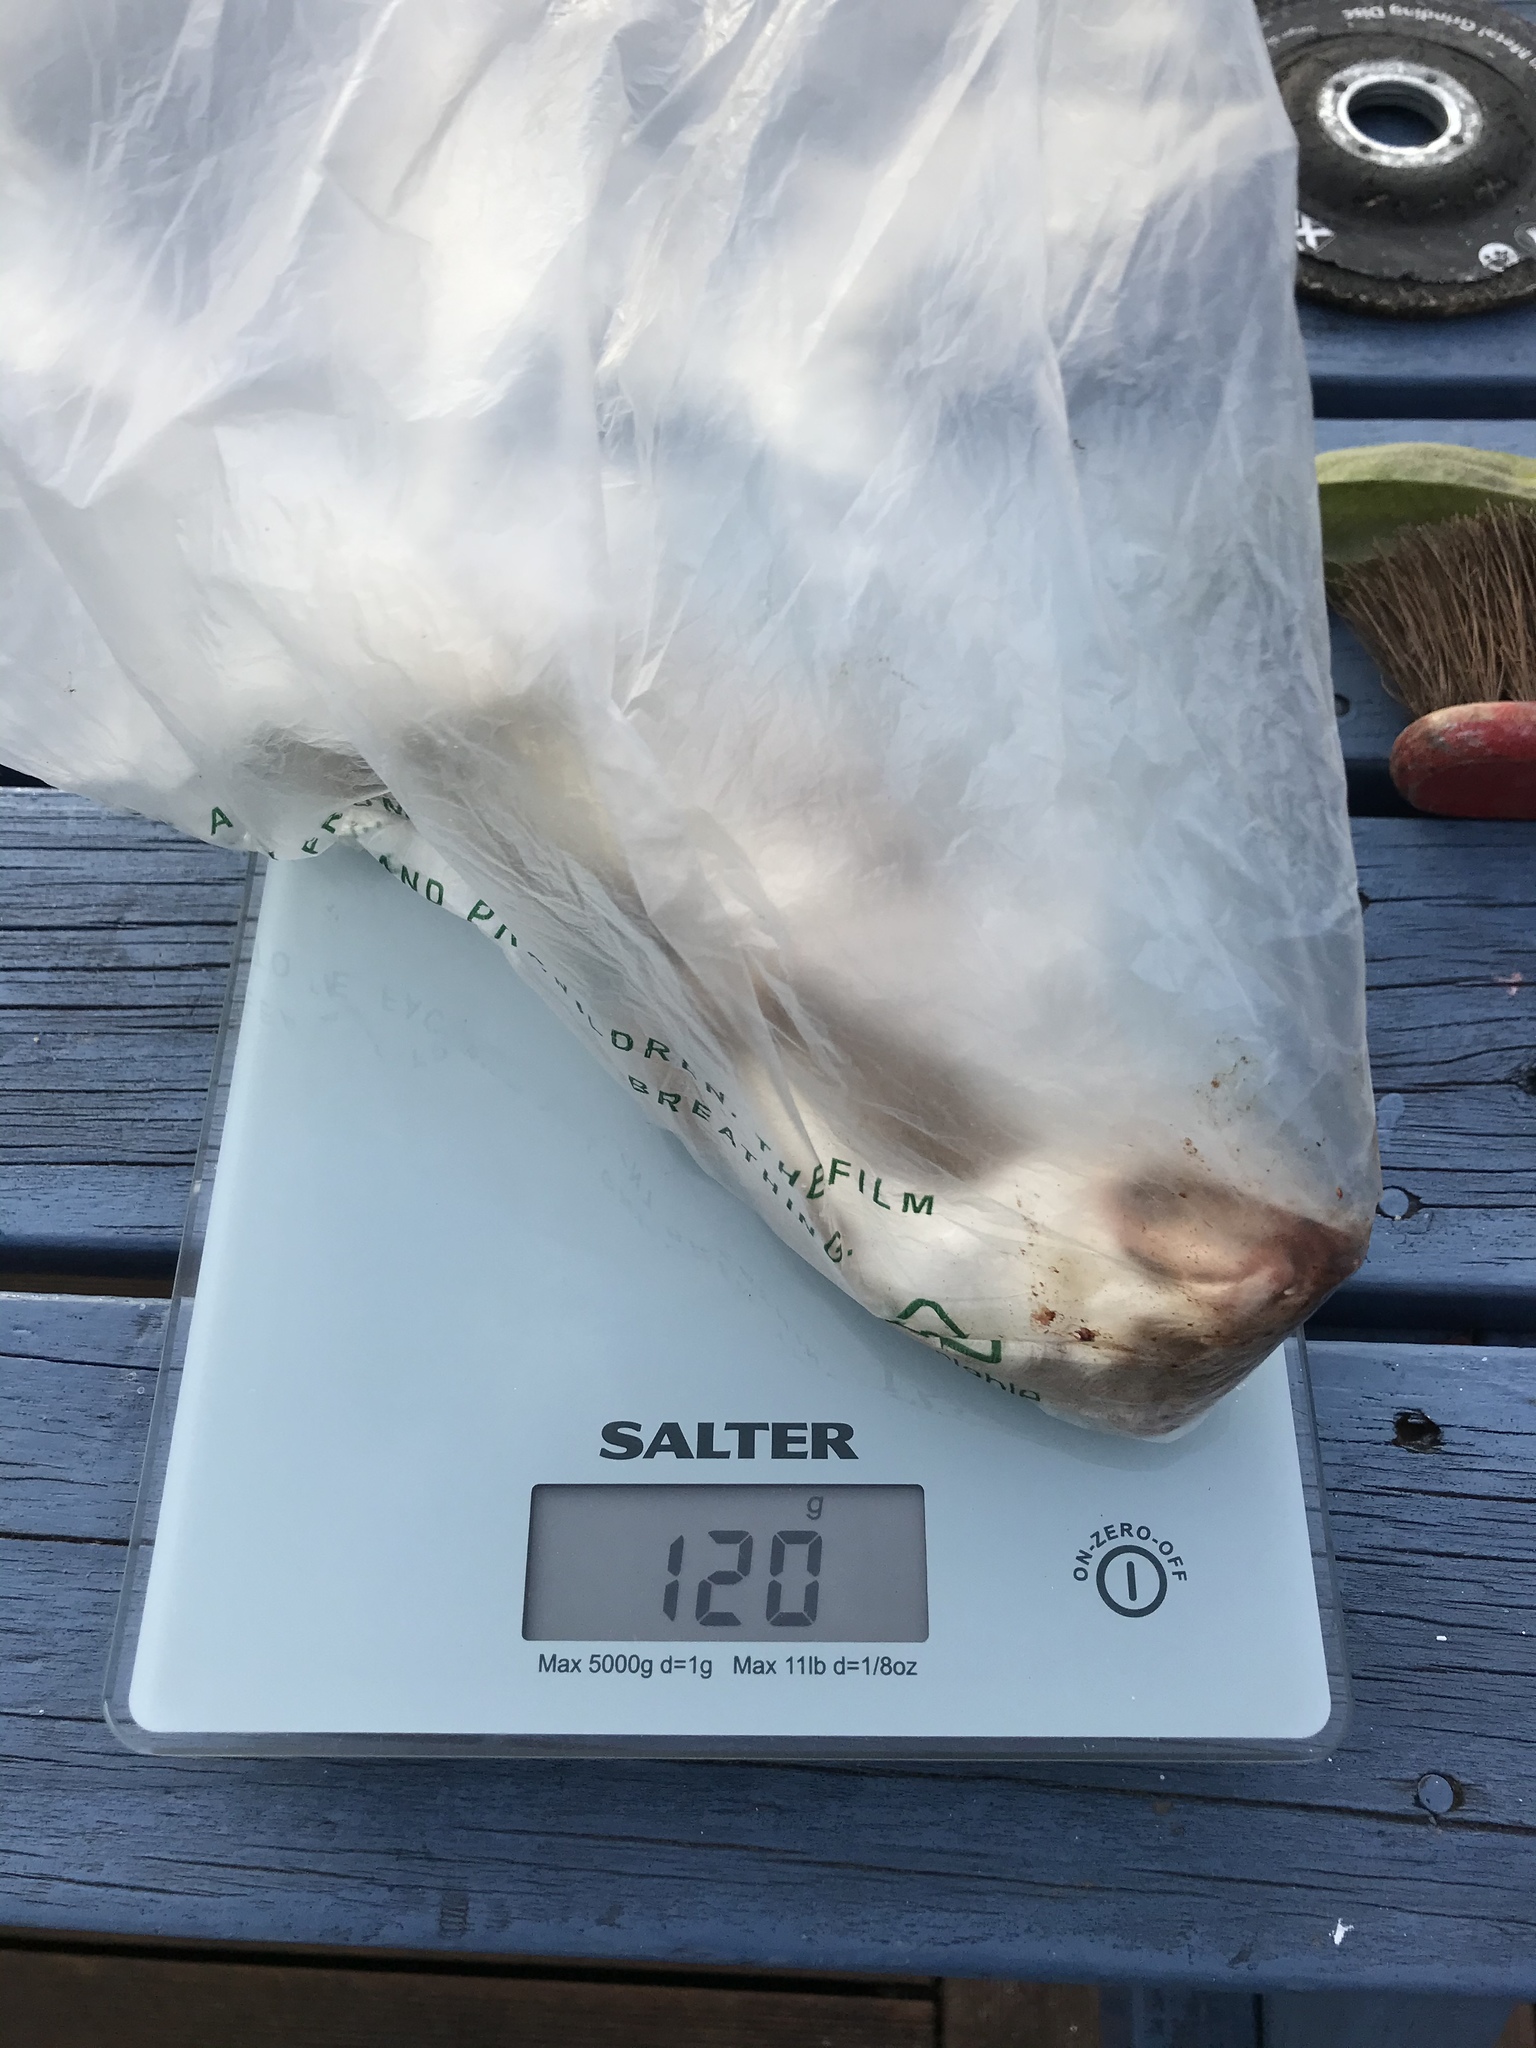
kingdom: Animalia
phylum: Chordata
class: Mammalia
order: Carnivora
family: Mustelidae
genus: Mustela
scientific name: Mustela nivalis
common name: Least weasel
